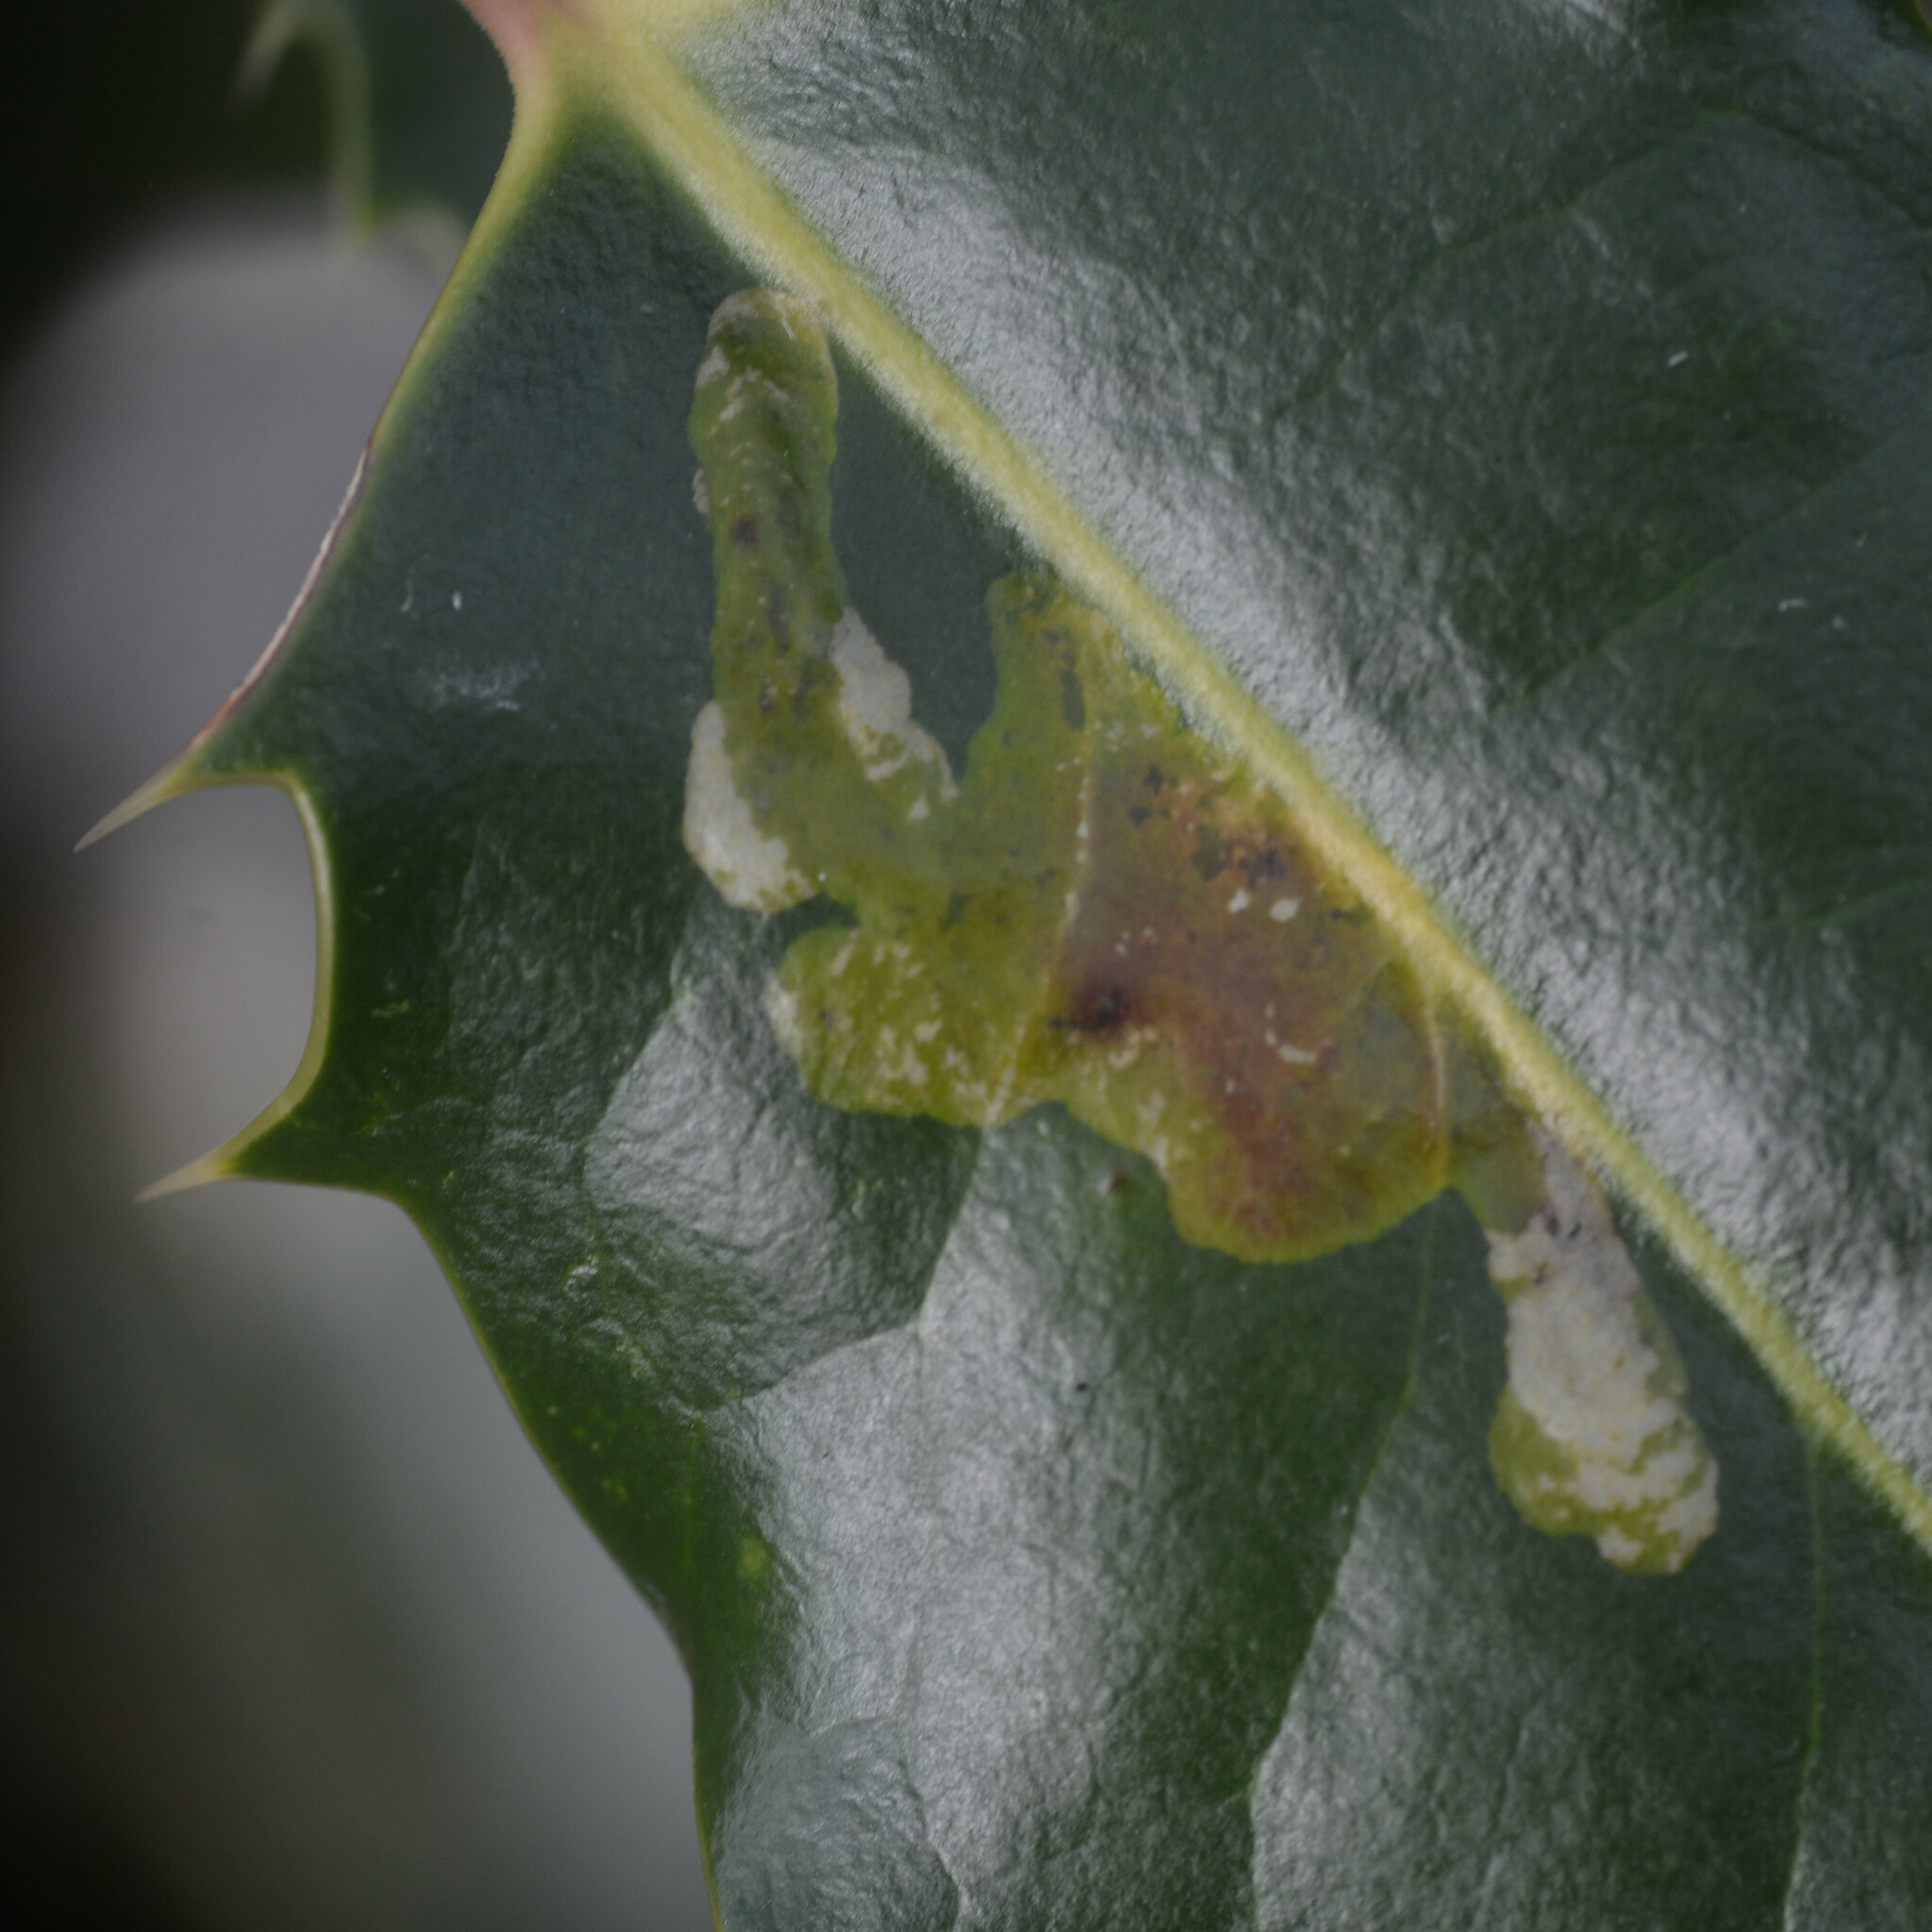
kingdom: Animalia
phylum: Arthropoda
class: Insecta
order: Diptera
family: Agromyzidae
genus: Phytomyza
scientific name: Phytomyza ilicis
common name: Holly leafminer
